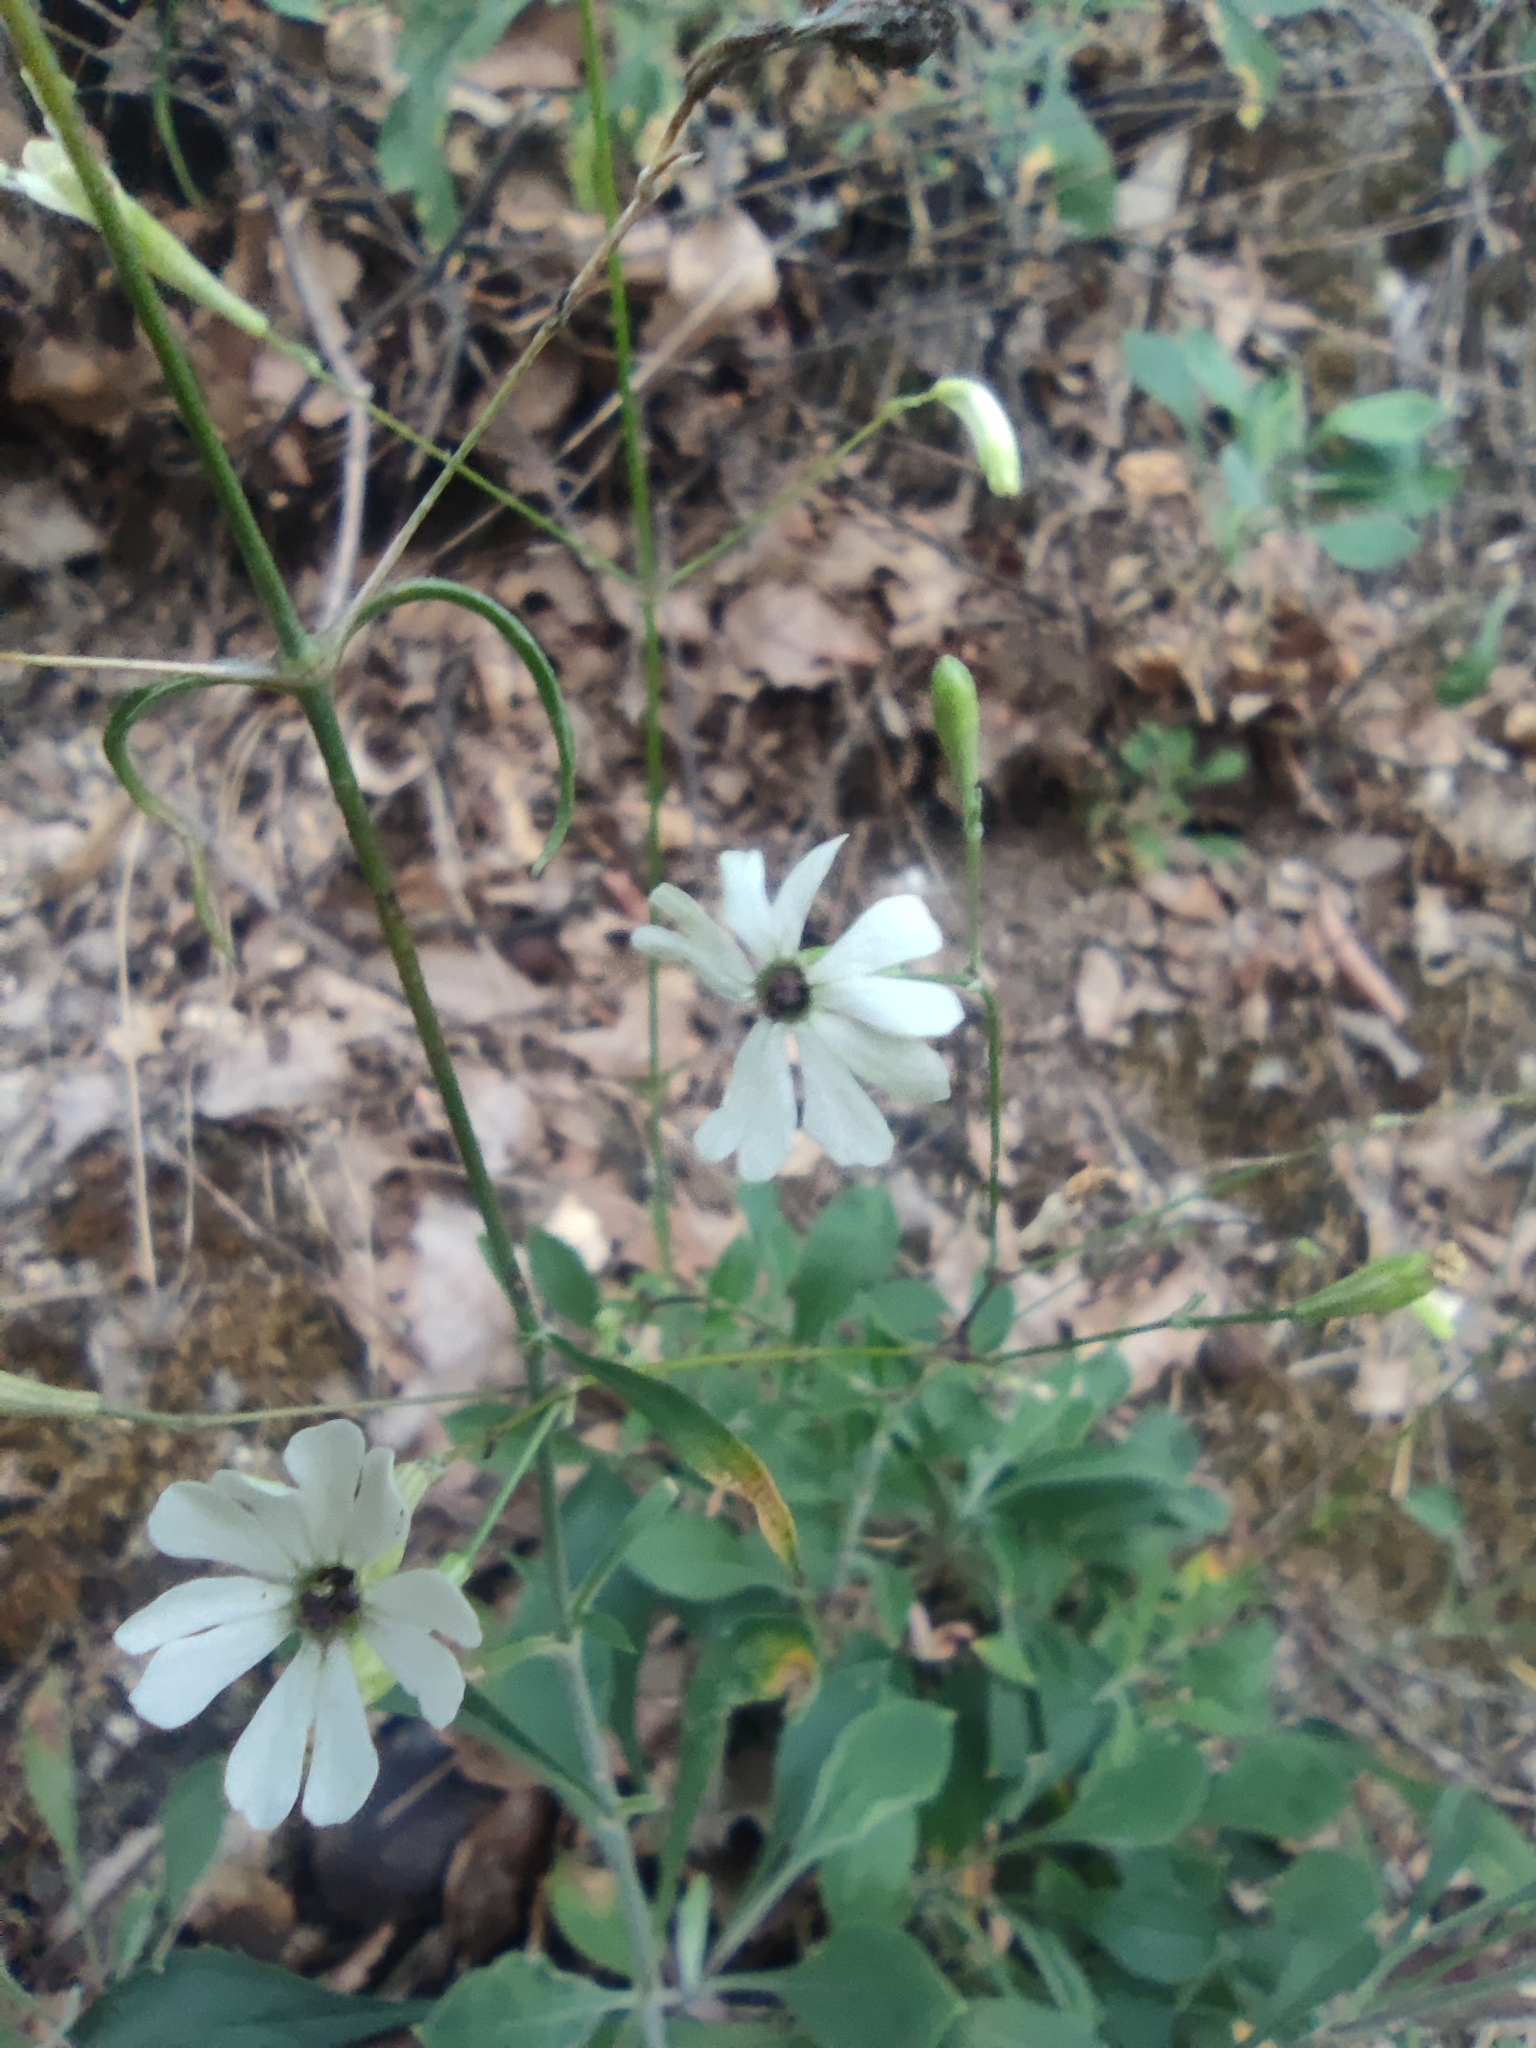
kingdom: Plantae
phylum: Tracheophyta
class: Magnoliopsida
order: Caryophyllales
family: Caryophyllaceae
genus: Silene
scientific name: Silene mellifera
